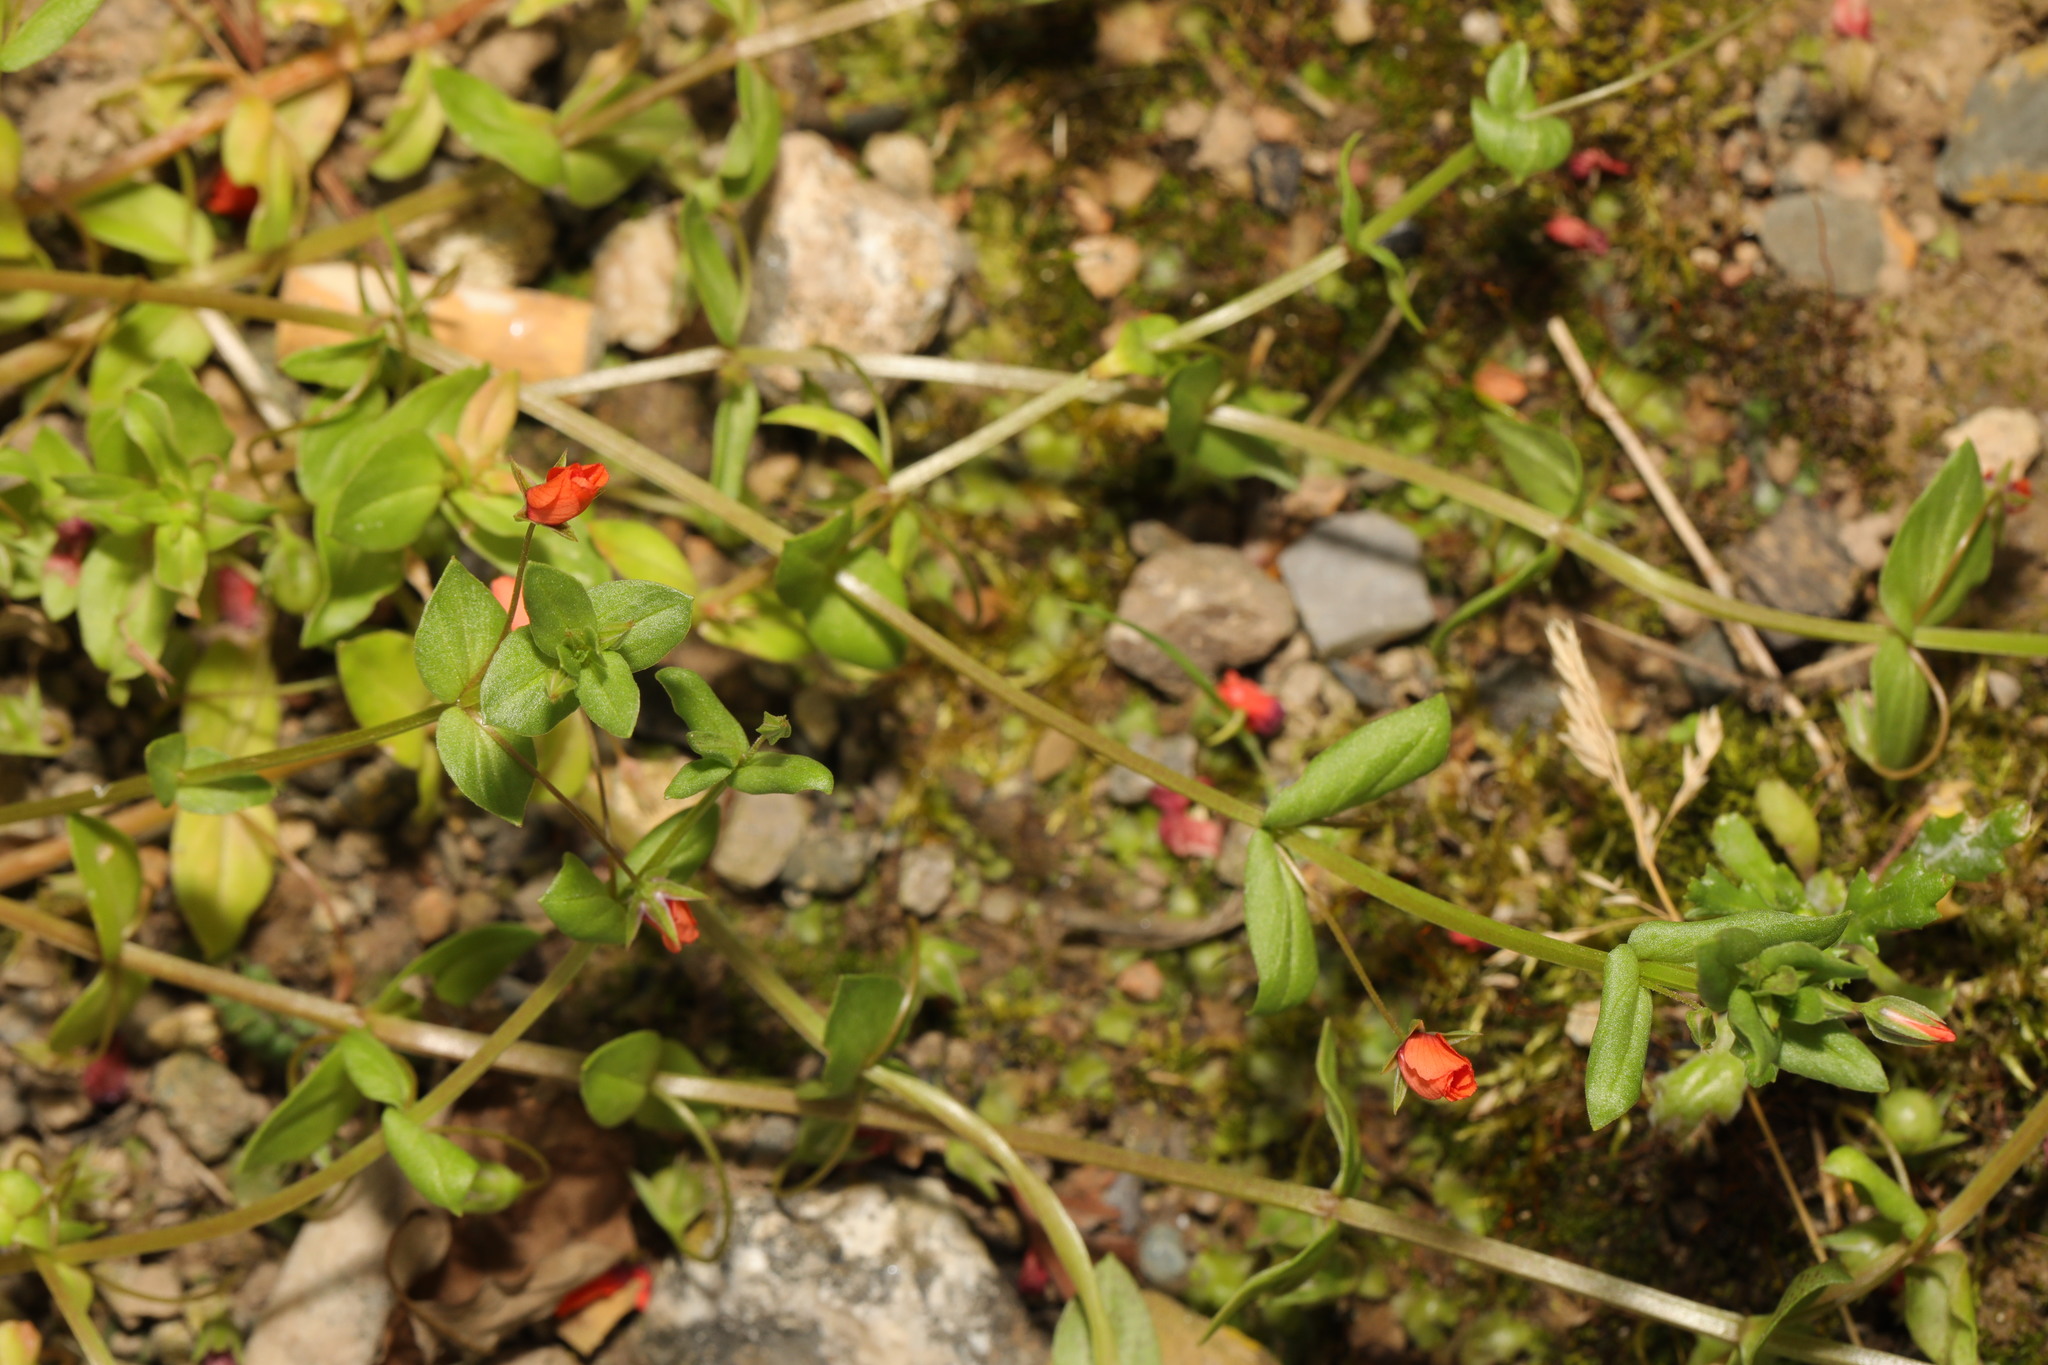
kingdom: Plantae
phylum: Tracheophyta
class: Magnoliopsida
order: Ericales
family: Primulaceae
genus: Lysimachia
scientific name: Lysimachia arvensis
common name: Scarlet pimpernel
